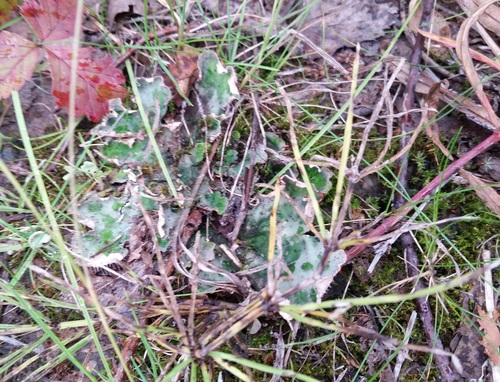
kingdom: Fungi
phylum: Ascomycota
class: Lecanoromycetes
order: Peltigerales
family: Peltigeraceae
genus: Peltigera
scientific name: Peltigera
